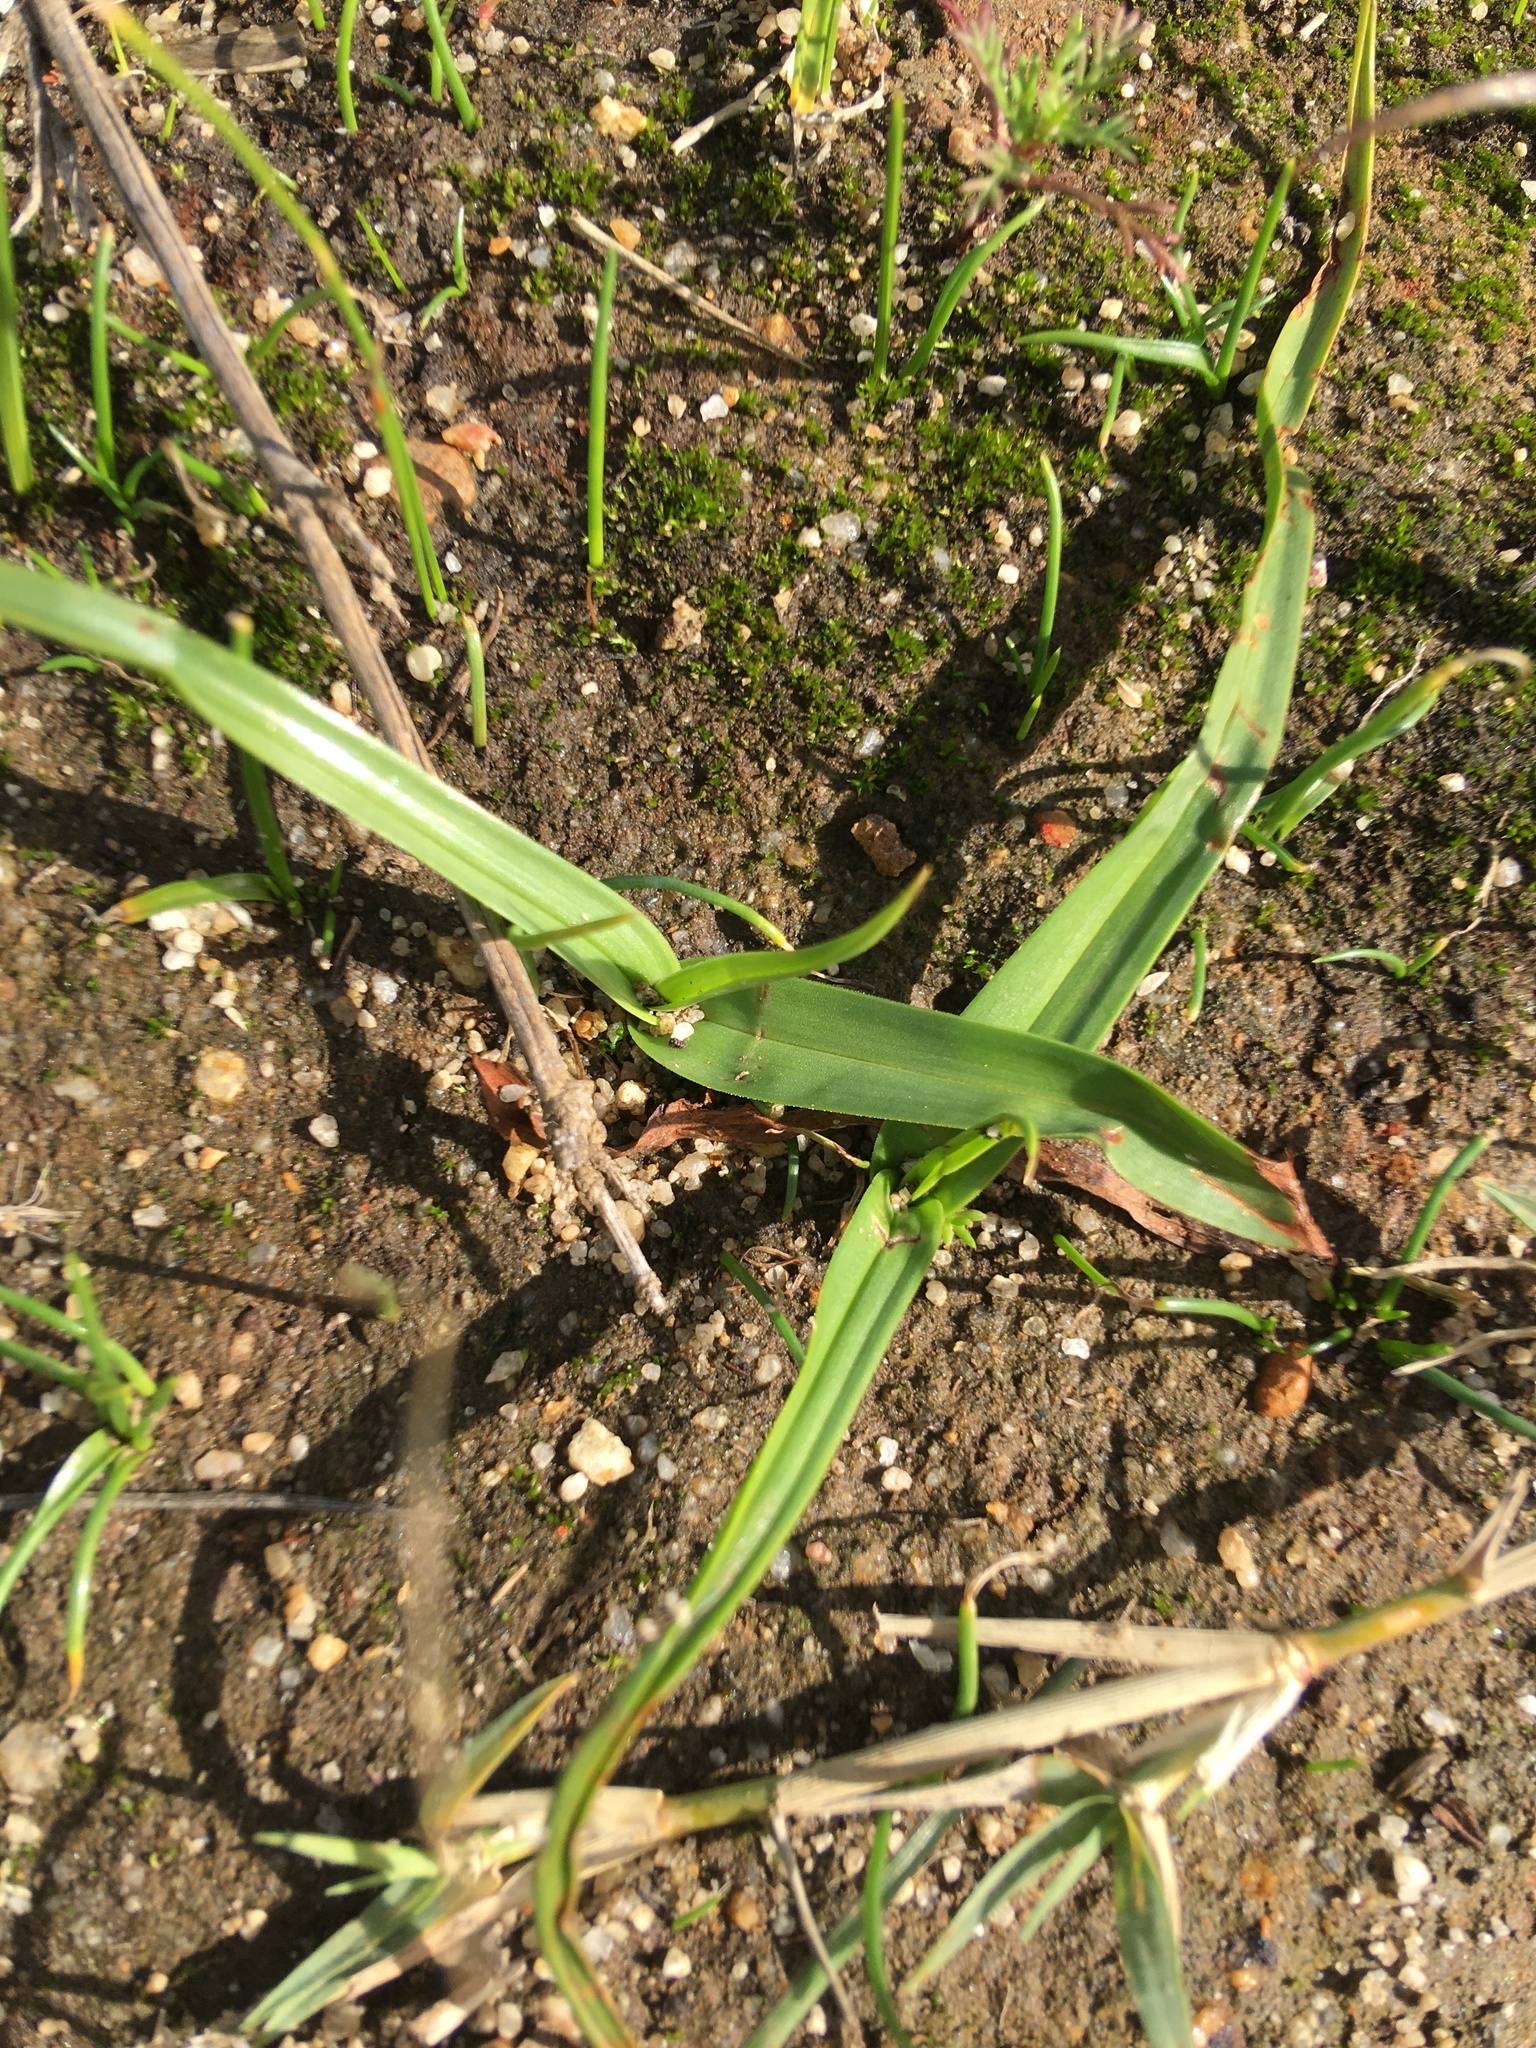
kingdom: Plantae
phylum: Tracheophyta
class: Liliopsida
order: Liliales
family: Colchicaceae
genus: Colchicum
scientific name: Colchicum eucomoides
